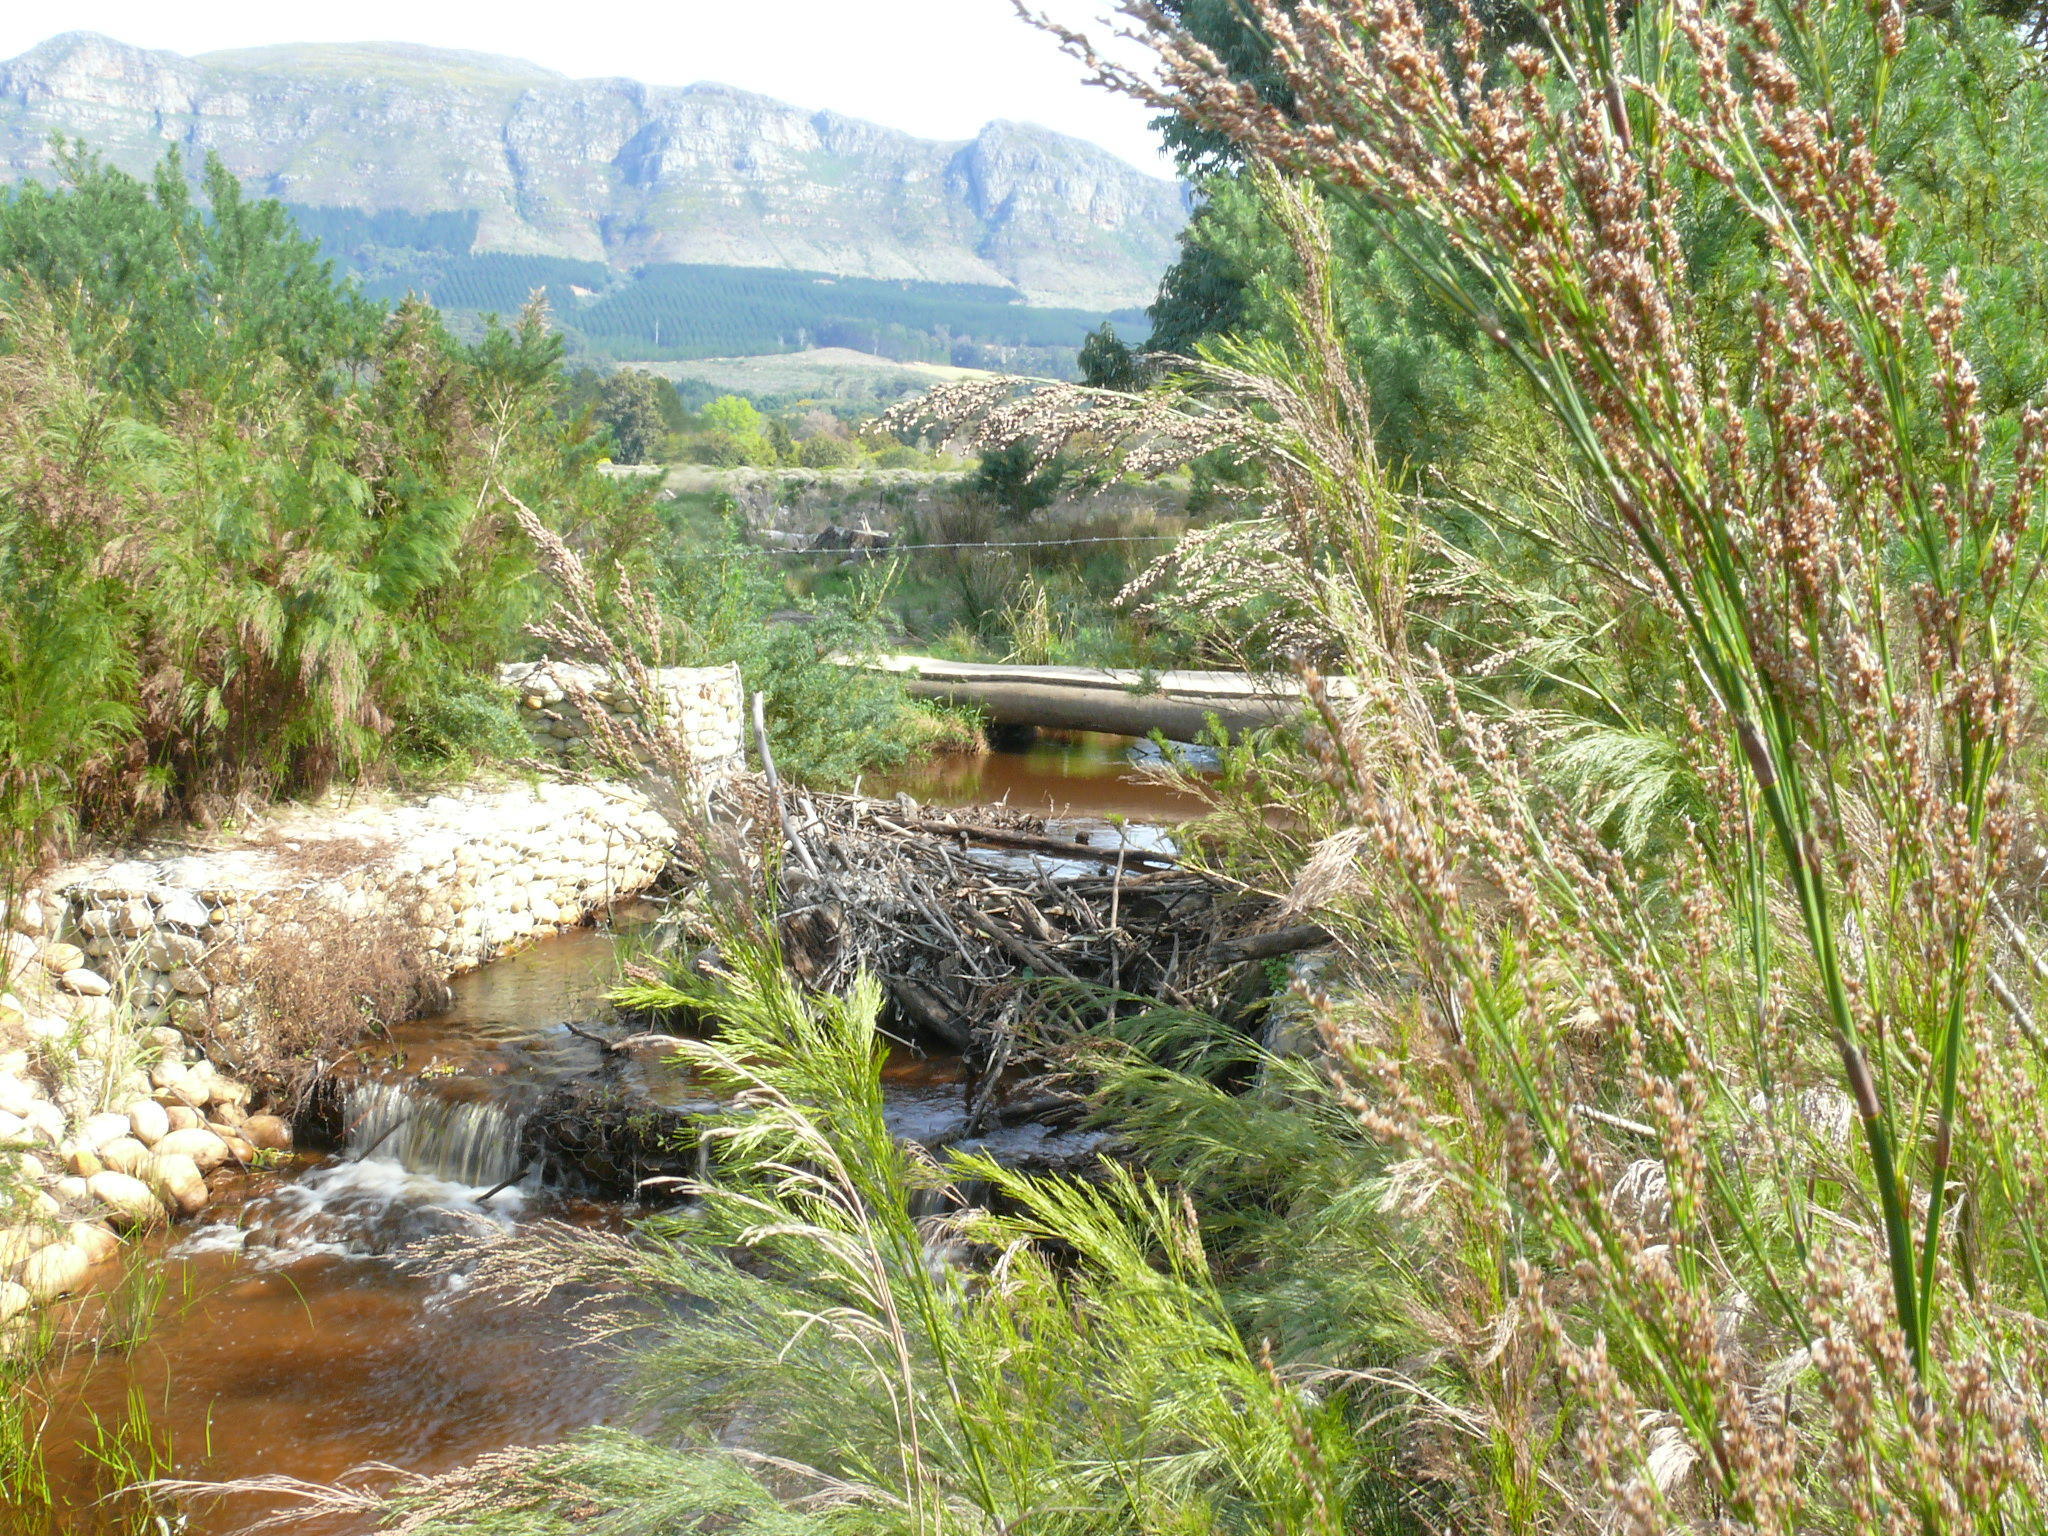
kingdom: Plantae
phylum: Tracheophyta
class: Liliopsida
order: Poales
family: Restionaceae
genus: Restio
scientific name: Restio paniculatus
